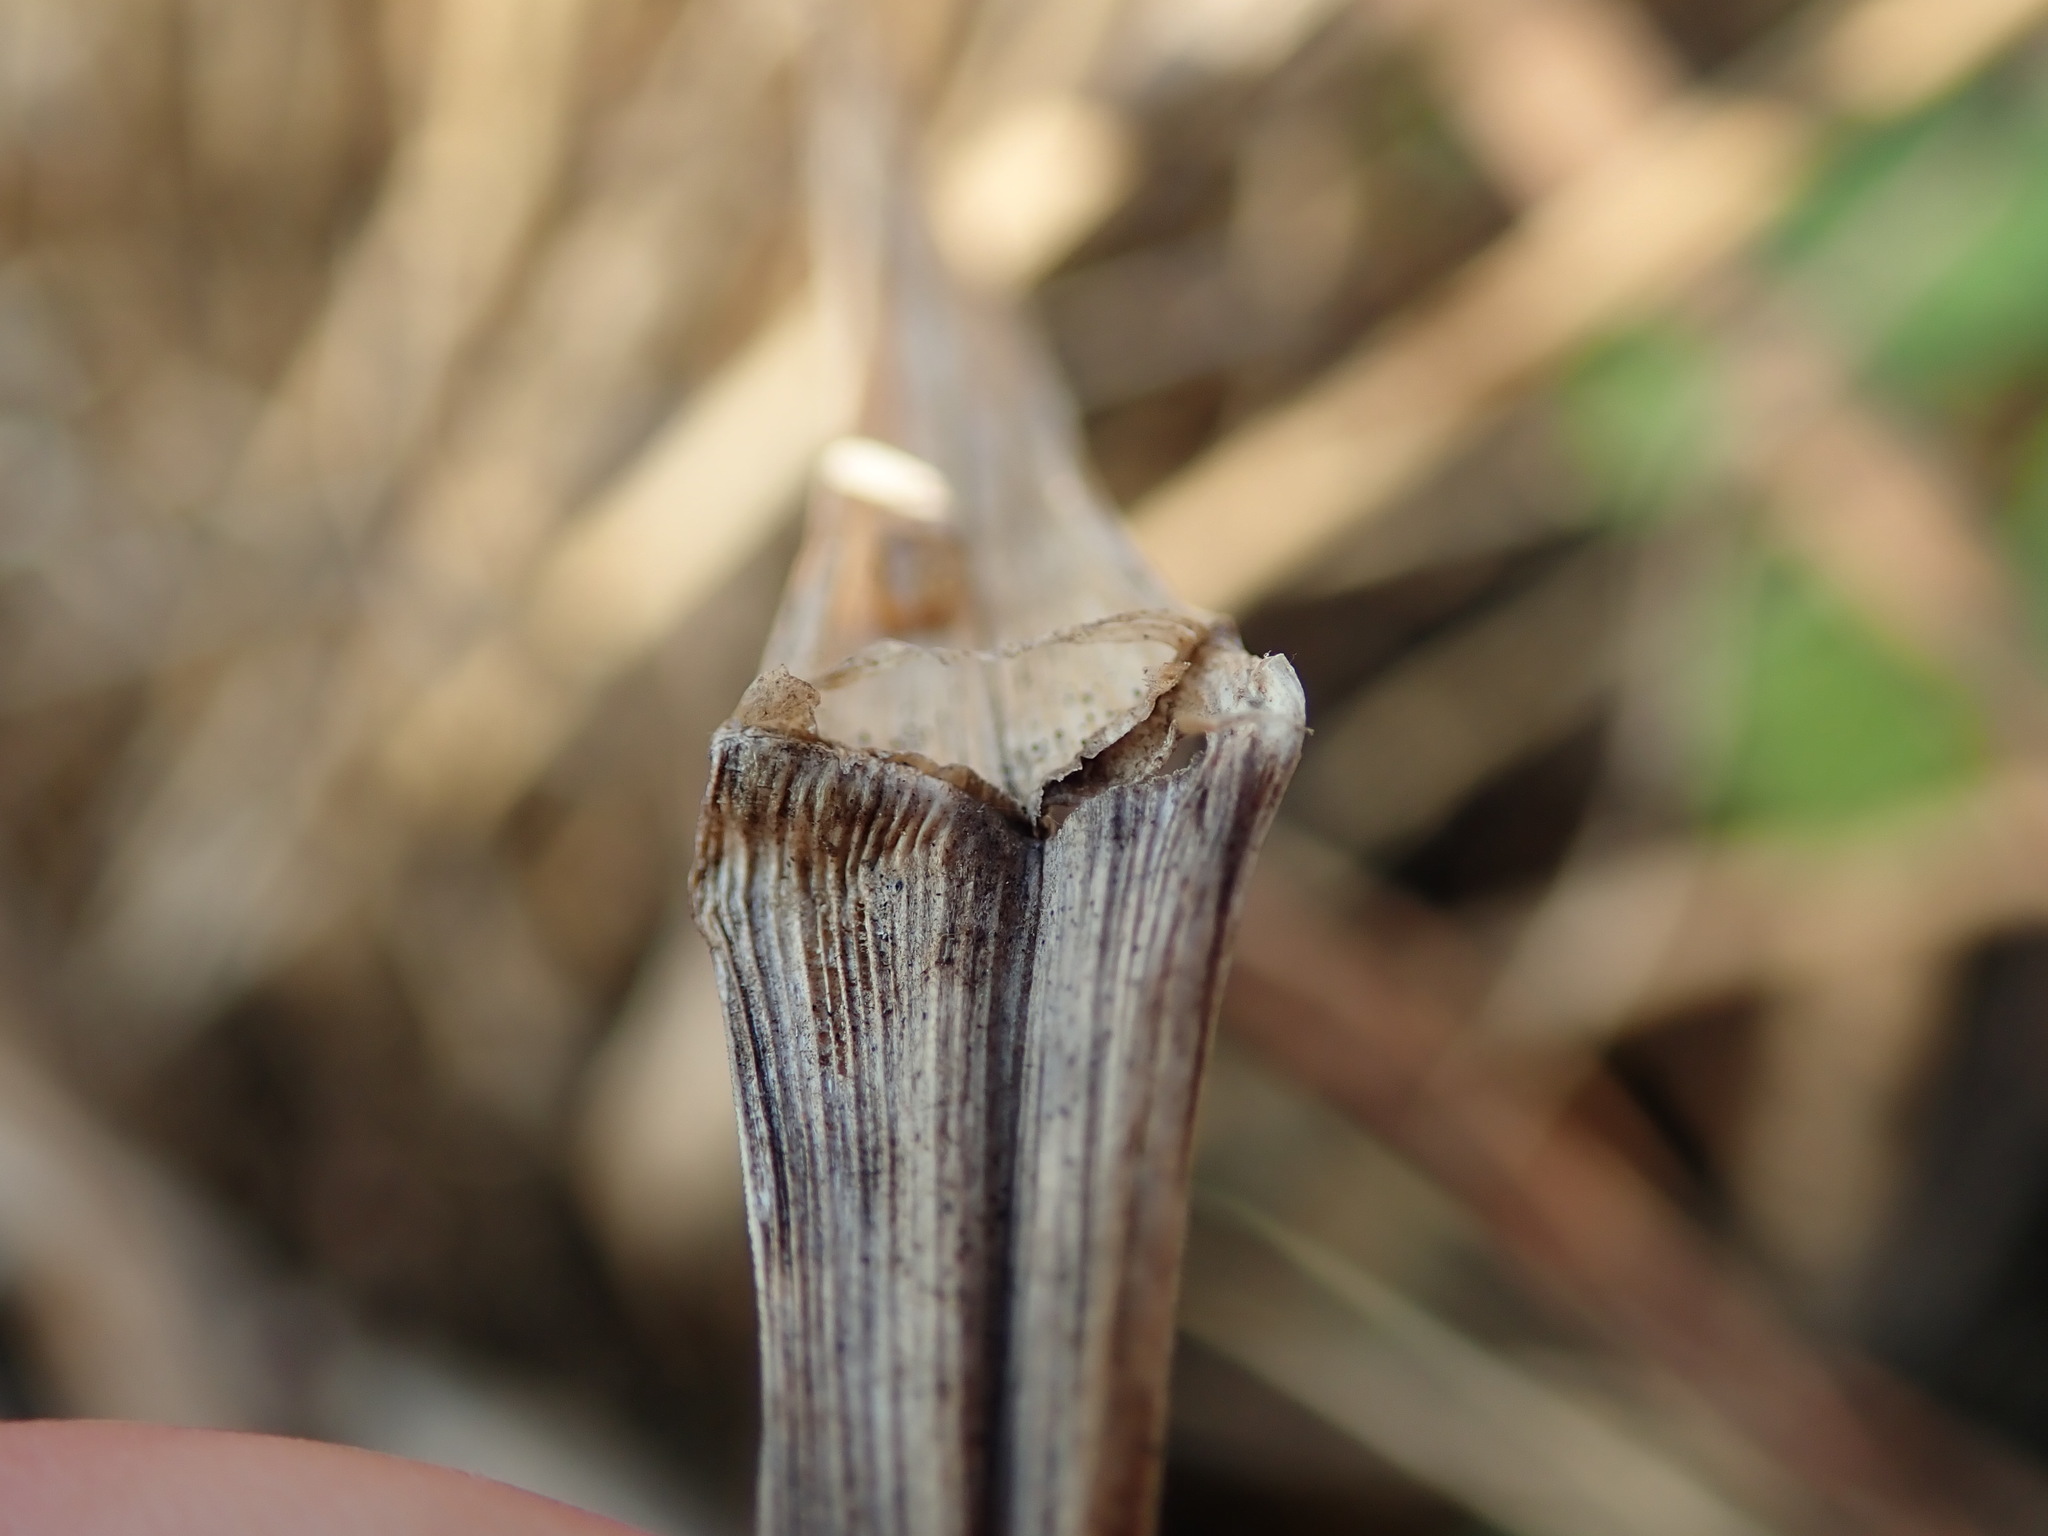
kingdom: Plantae
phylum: Tracheophyta
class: Liliopsida
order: Poales
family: Poaceae
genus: Glyceria
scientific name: Glyceria maxima
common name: Reed mannagrass
